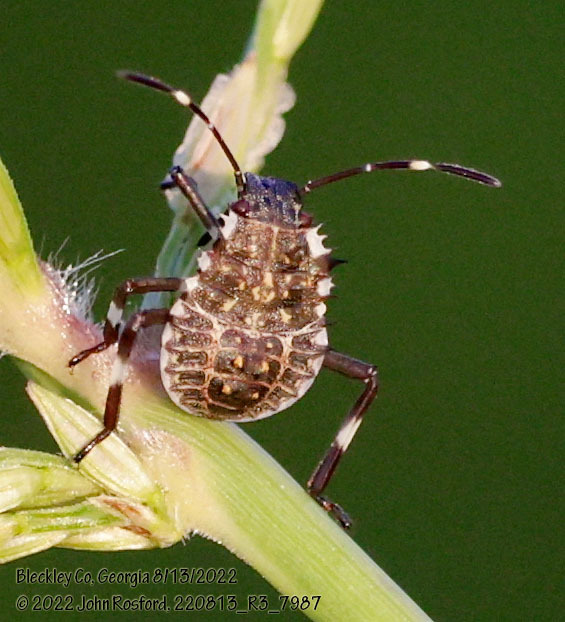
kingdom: Animalia
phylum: Arthropoda
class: Insecta
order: Hemiptera
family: Pentatomidae
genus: Halyomorpha
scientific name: Halyomorpha halys
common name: Brown marmorated stink bug
